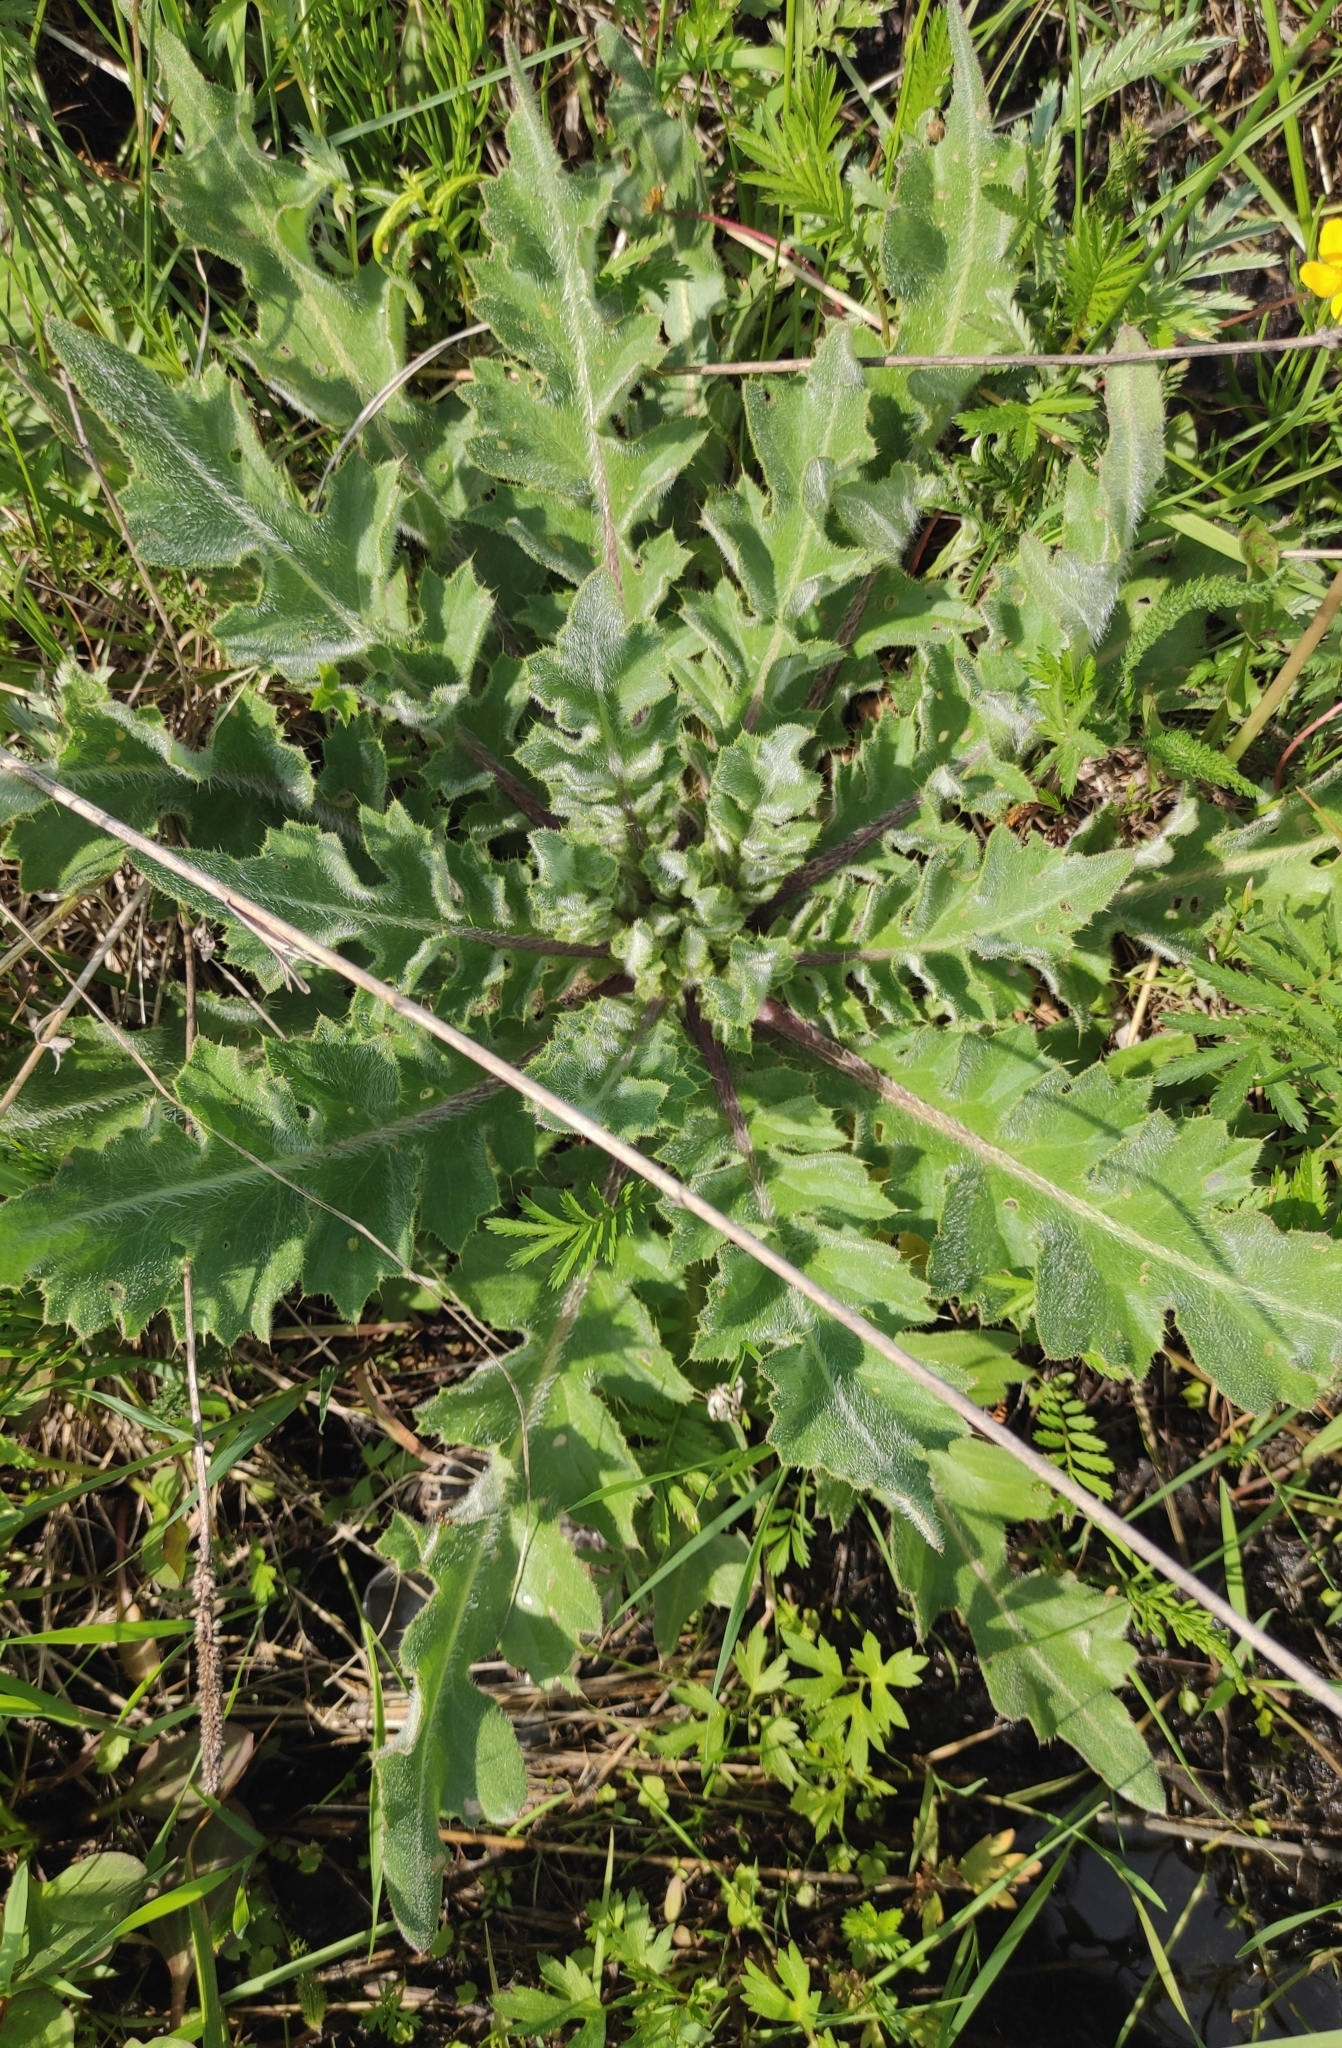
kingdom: Plantae
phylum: Tracheophyta
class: Magnoliopsida
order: Asterales
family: Asteraceae
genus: Cirsium
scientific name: Cirsium esculentum
